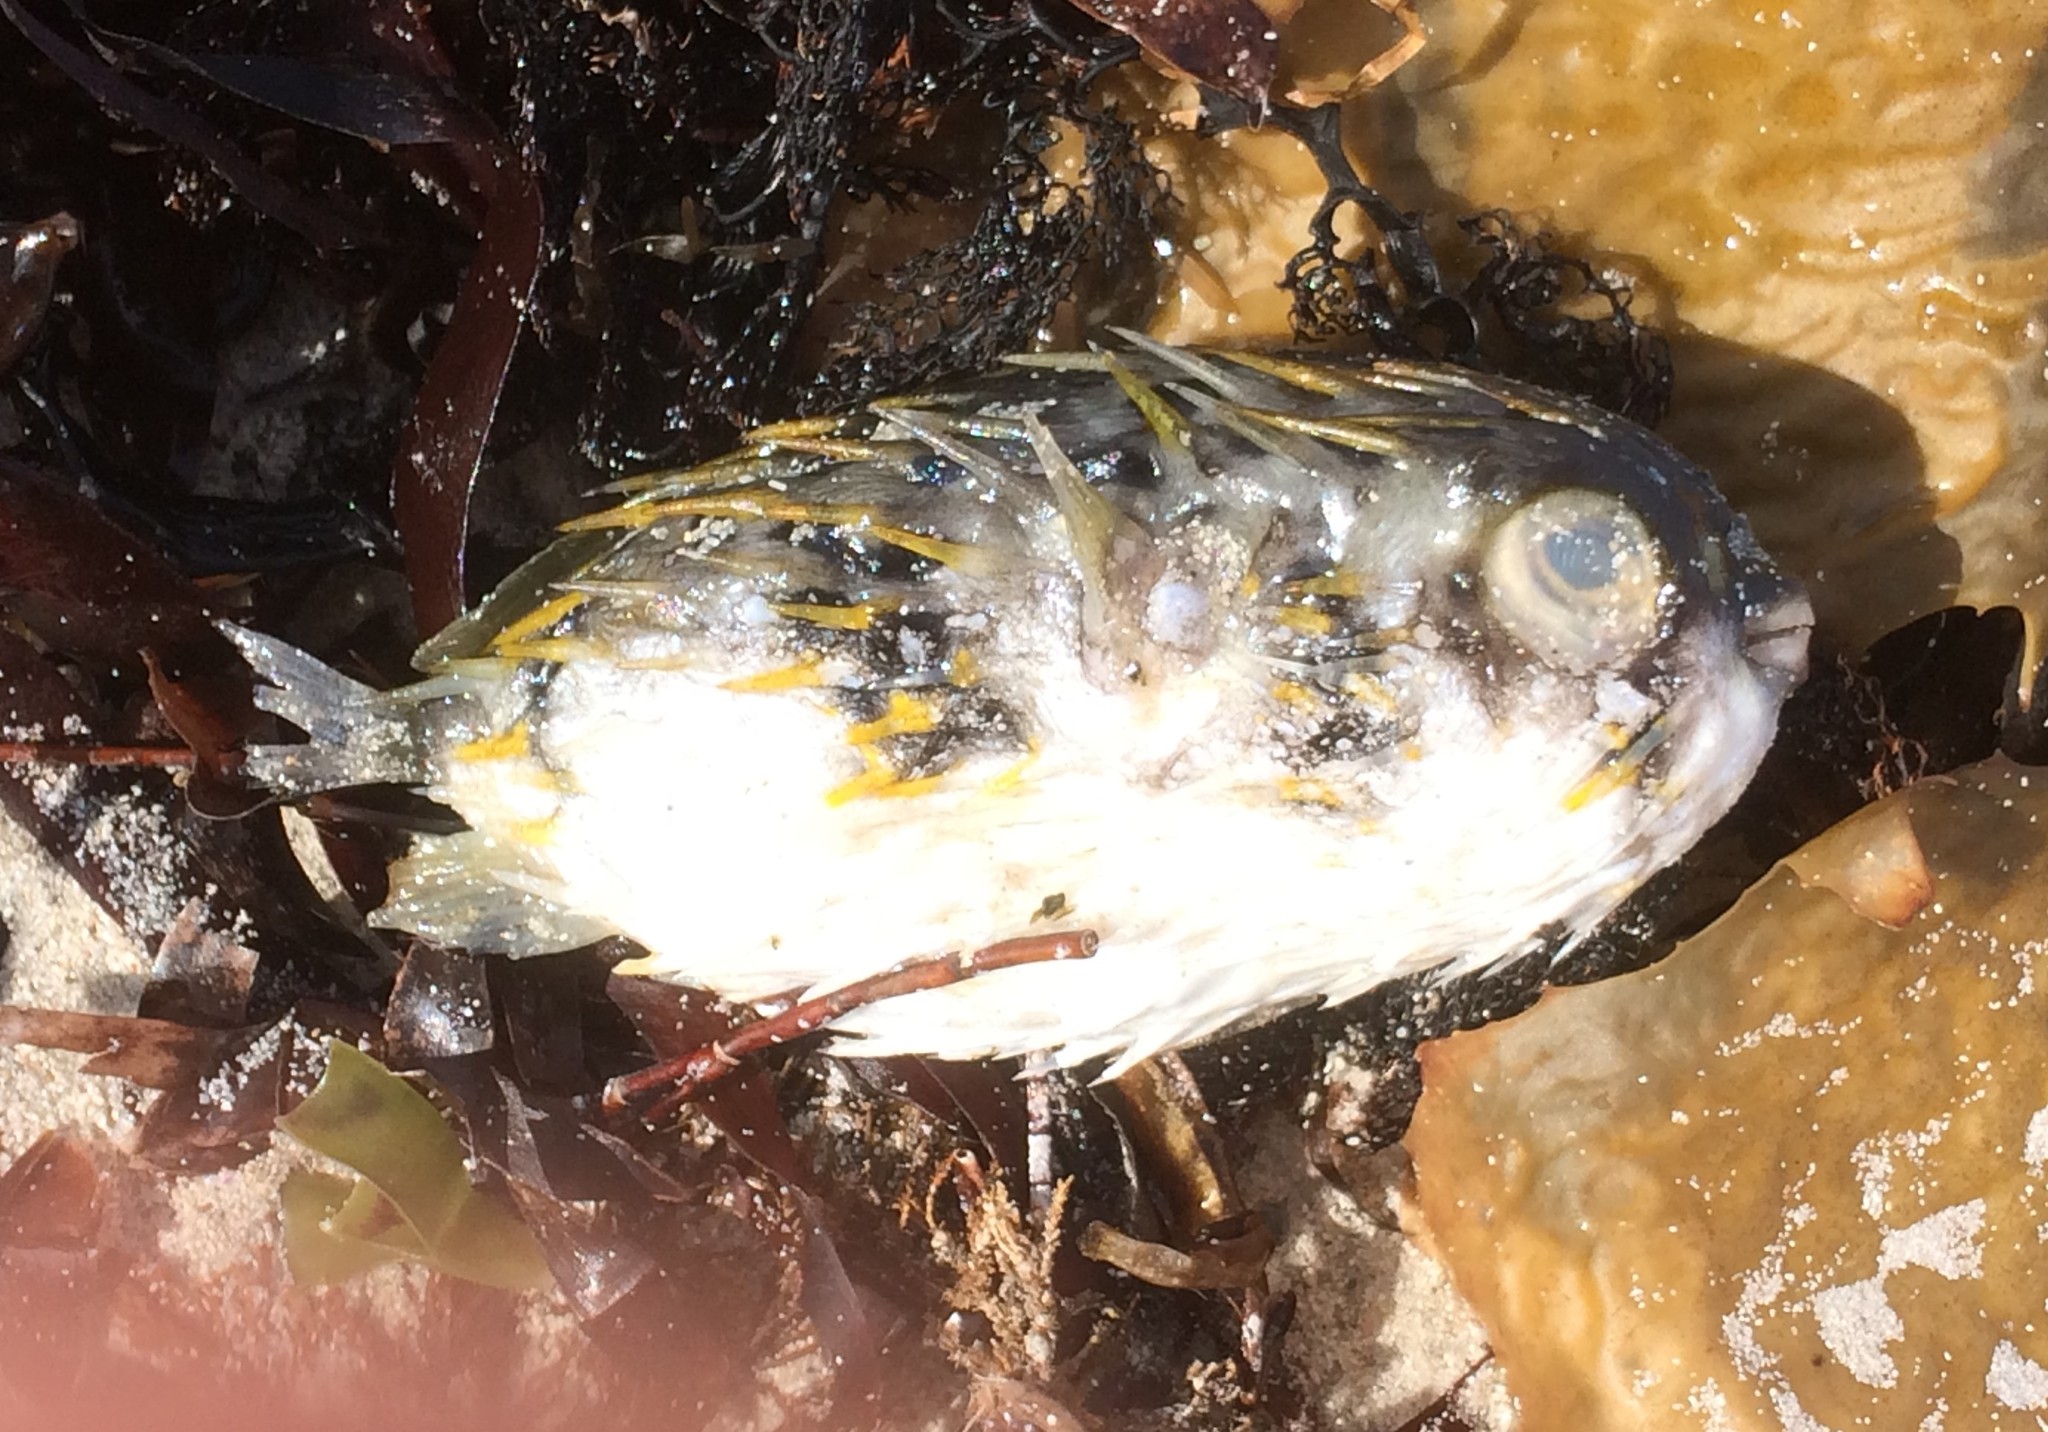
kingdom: Animalia
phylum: Chordata
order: Tetraodontiformes
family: Diodontidae
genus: Diodon
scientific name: Diodon nicthemerus
